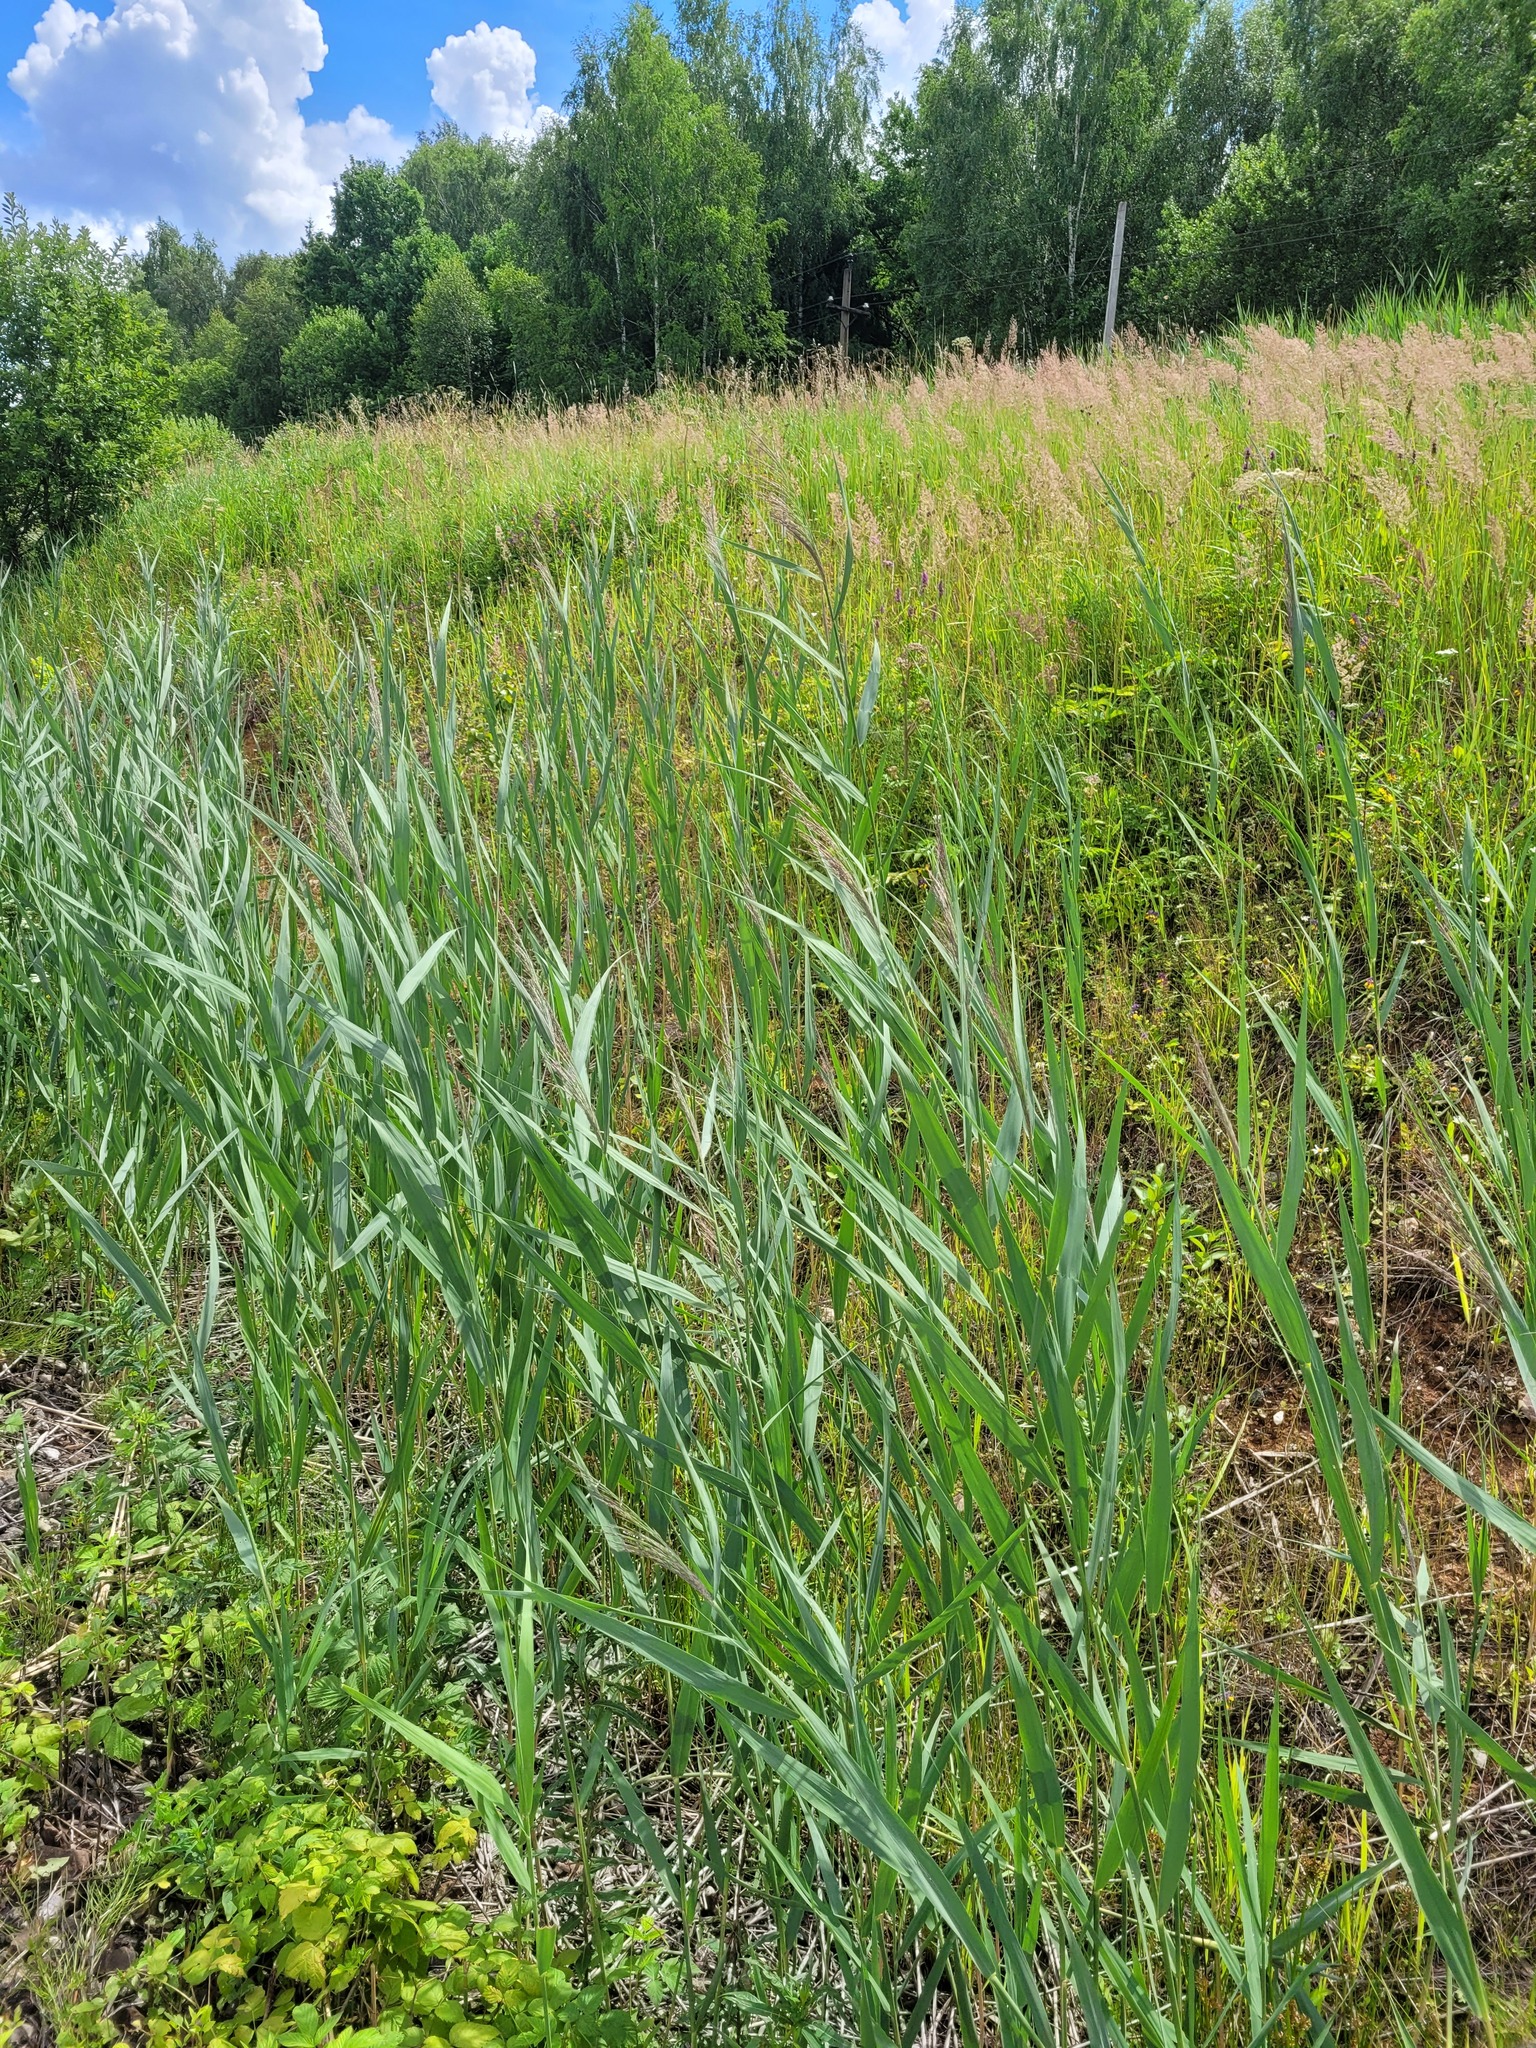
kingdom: Plantae
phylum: Tracheophyta
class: Liliopsida
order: Poales
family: Poaceae
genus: Phragmites
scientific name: Phragmites australis
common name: Common reed
